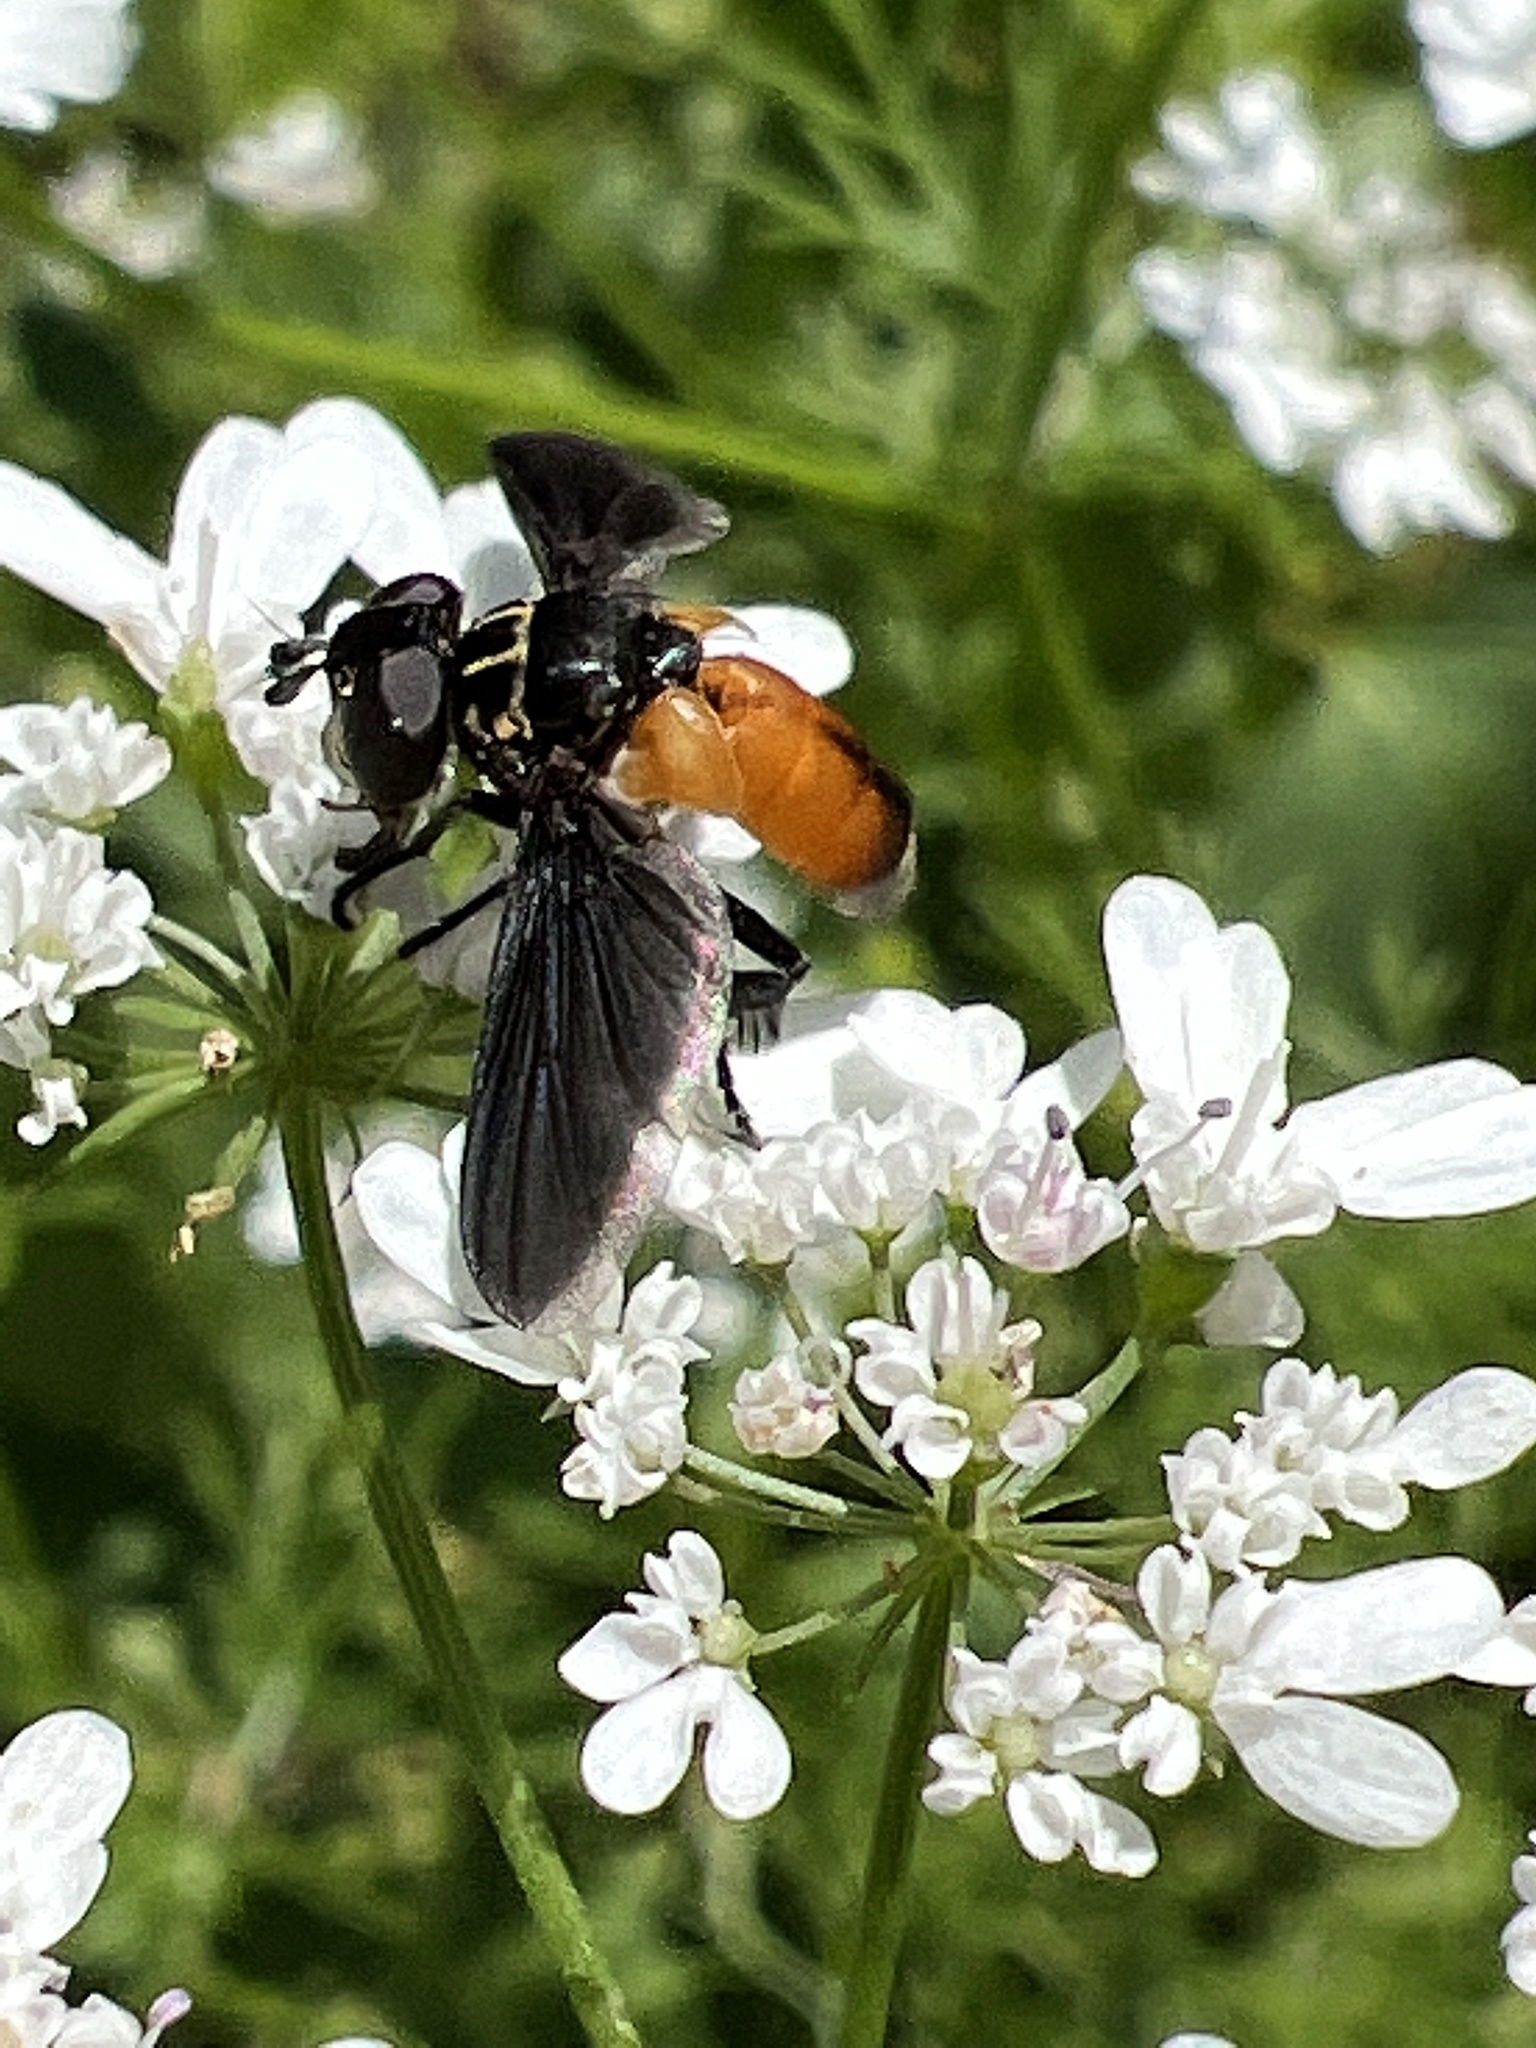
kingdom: Animalia
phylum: Arthropoda
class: Insecta
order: Diptera
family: Tachinidae
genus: Trichopoda
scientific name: Trichopoda pennipes
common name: Tachinid fly
